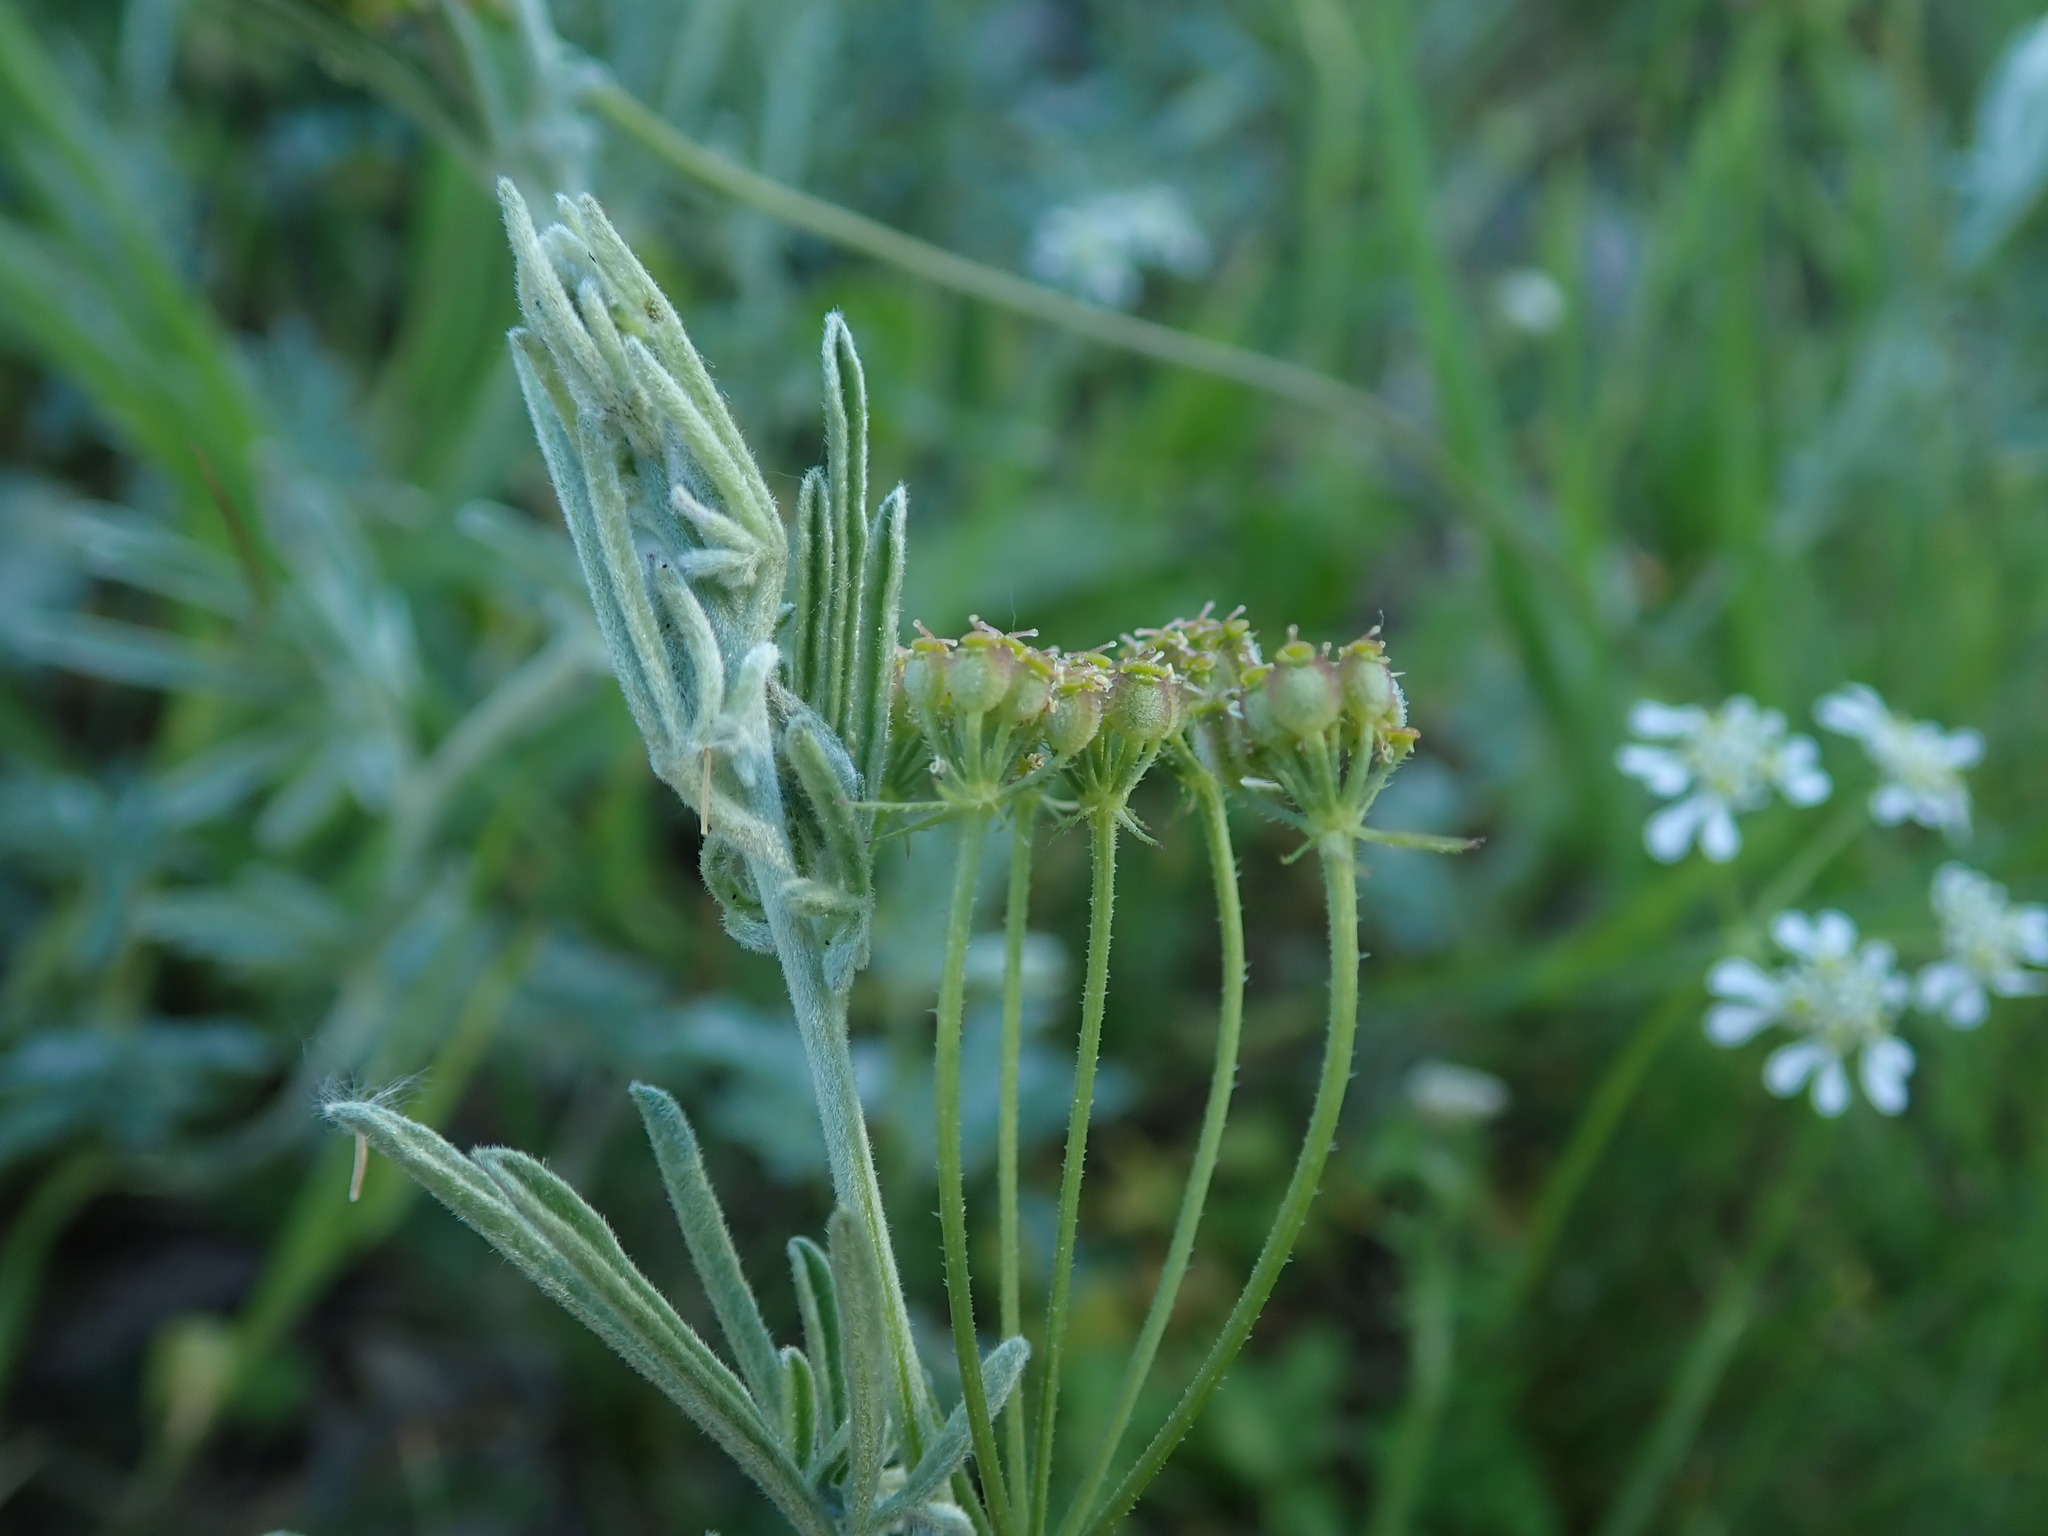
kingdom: Plantae
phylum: Tracheophyta
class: Magnoliopsida
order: Apiales
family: Apiaceae
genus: Tordylium
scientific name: Tordylium apulum
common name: Mediterranean hartwort
